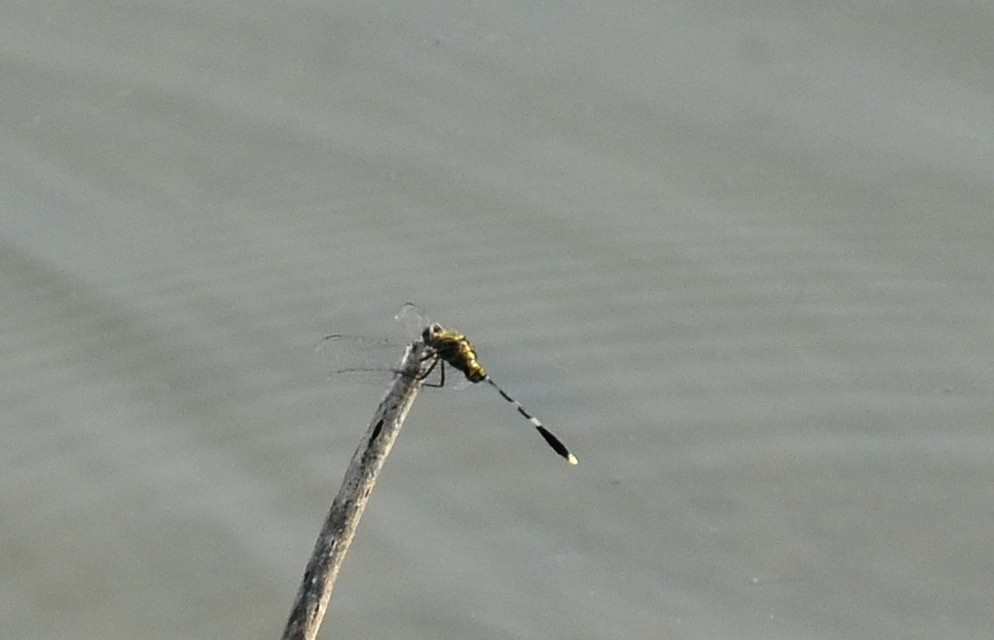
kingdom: Animalia
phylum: Arthropoda
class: Insecta
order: Odonata
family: Libellulidae
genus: Orthetrum
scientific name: Orthetrum sabina
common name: Slender skimmer
